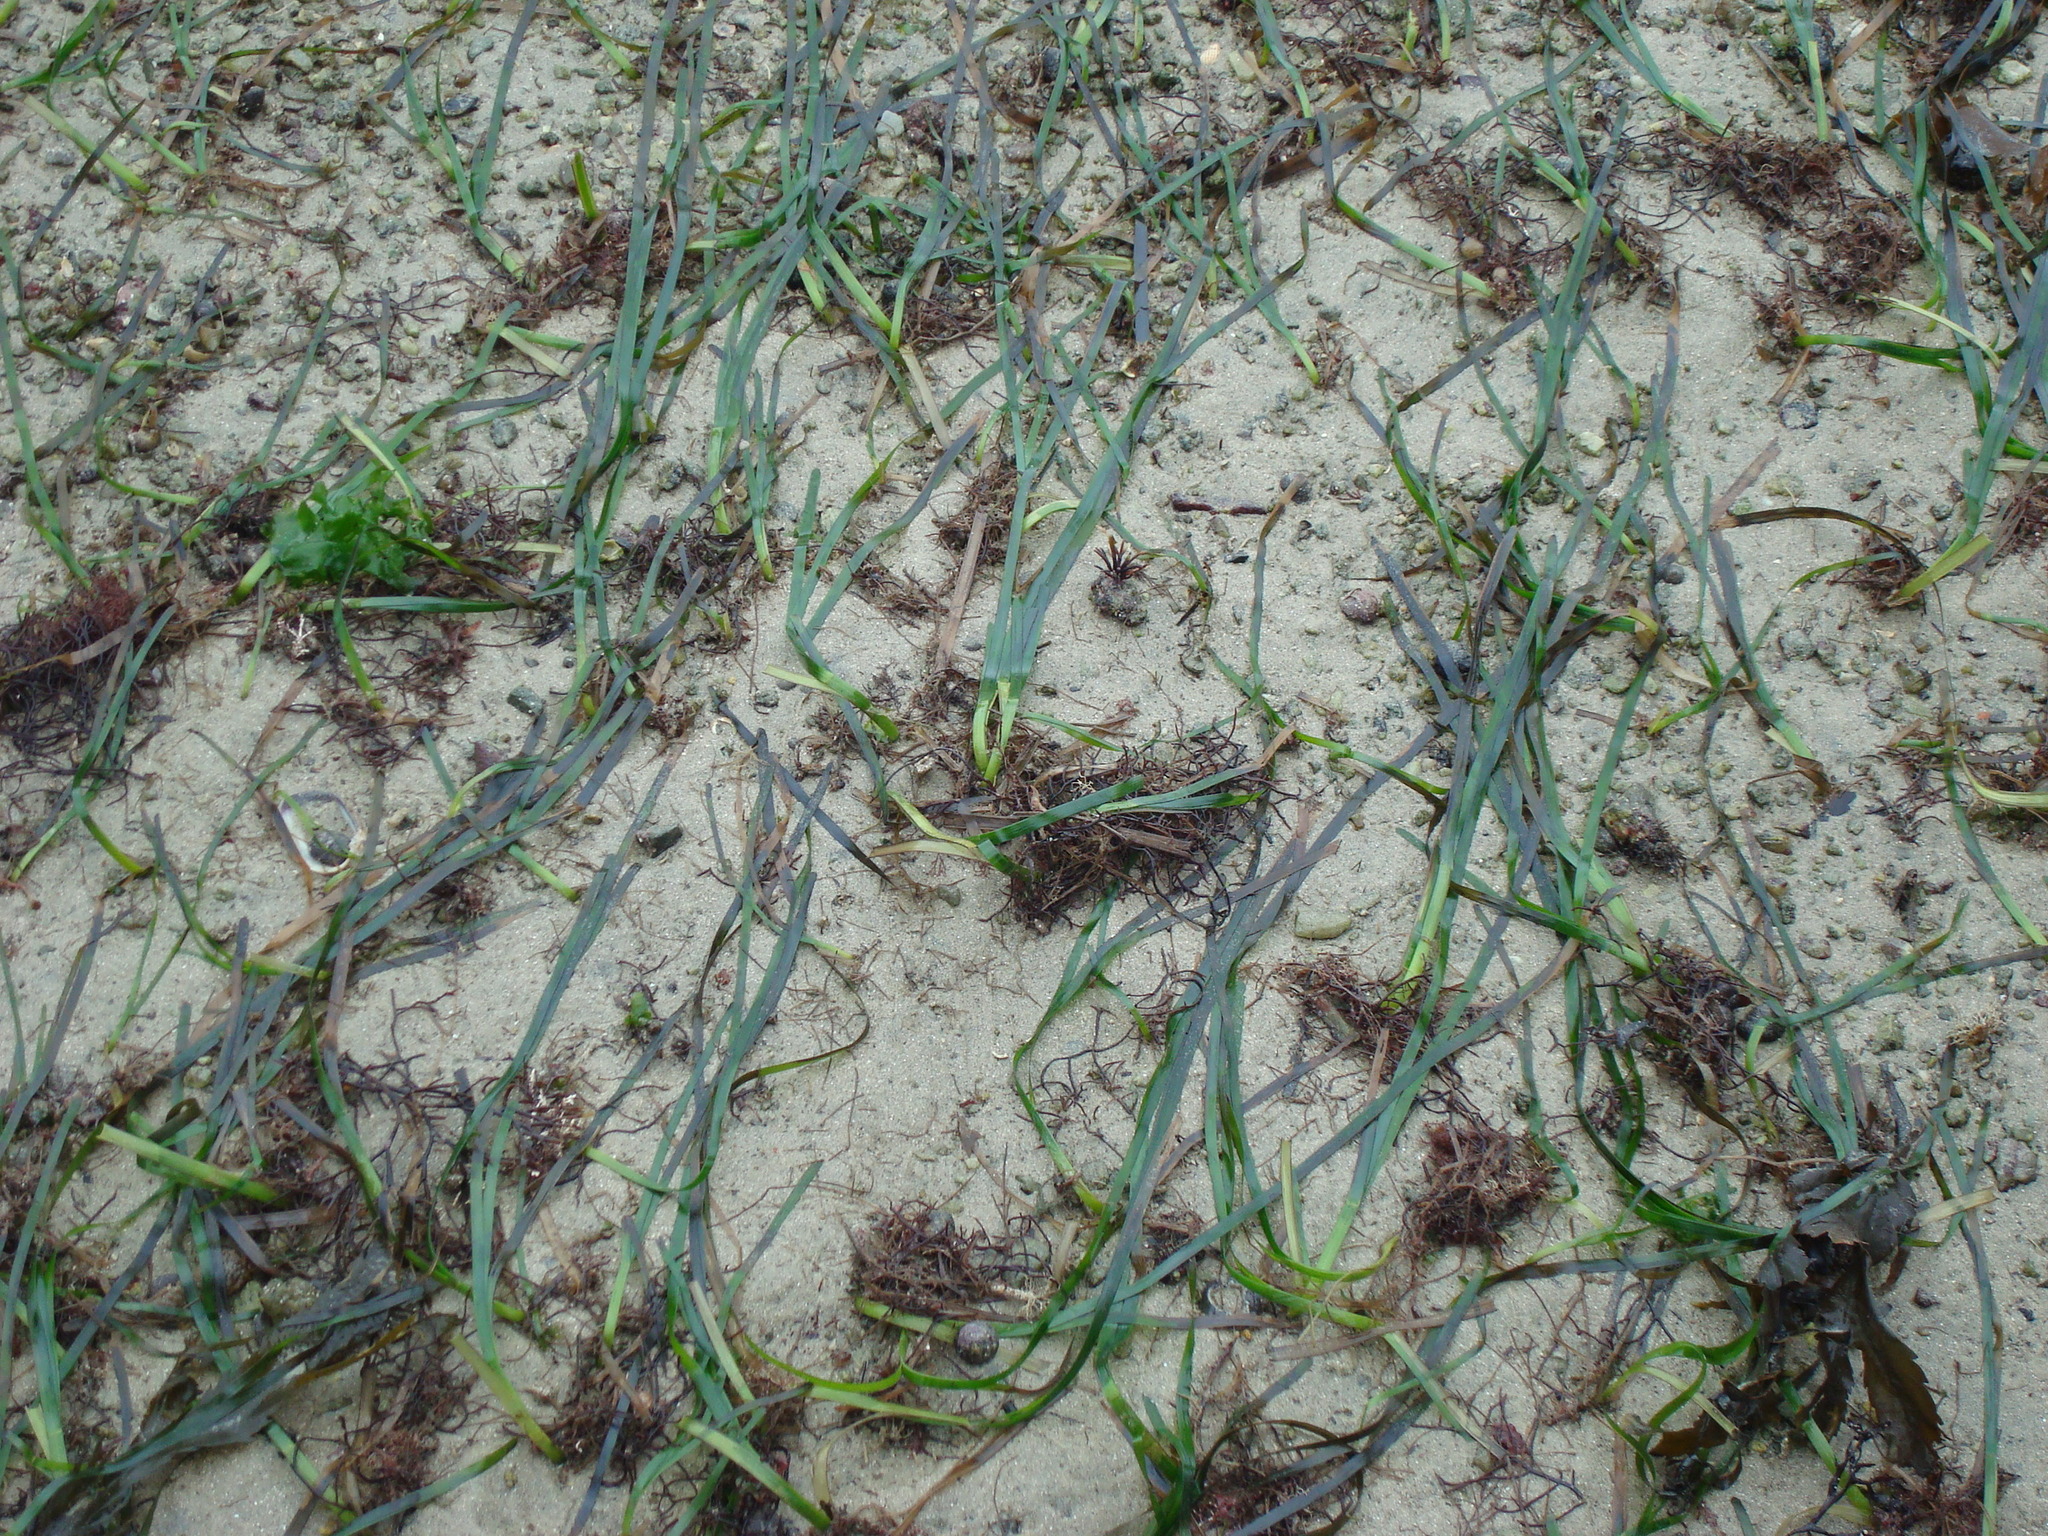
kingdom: Plantae
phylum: Tracheophyta
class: Liliopsida
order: Alismatales
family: Zosteraceae
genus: Zostera
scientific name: Zostera marina
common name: Eelgrass
